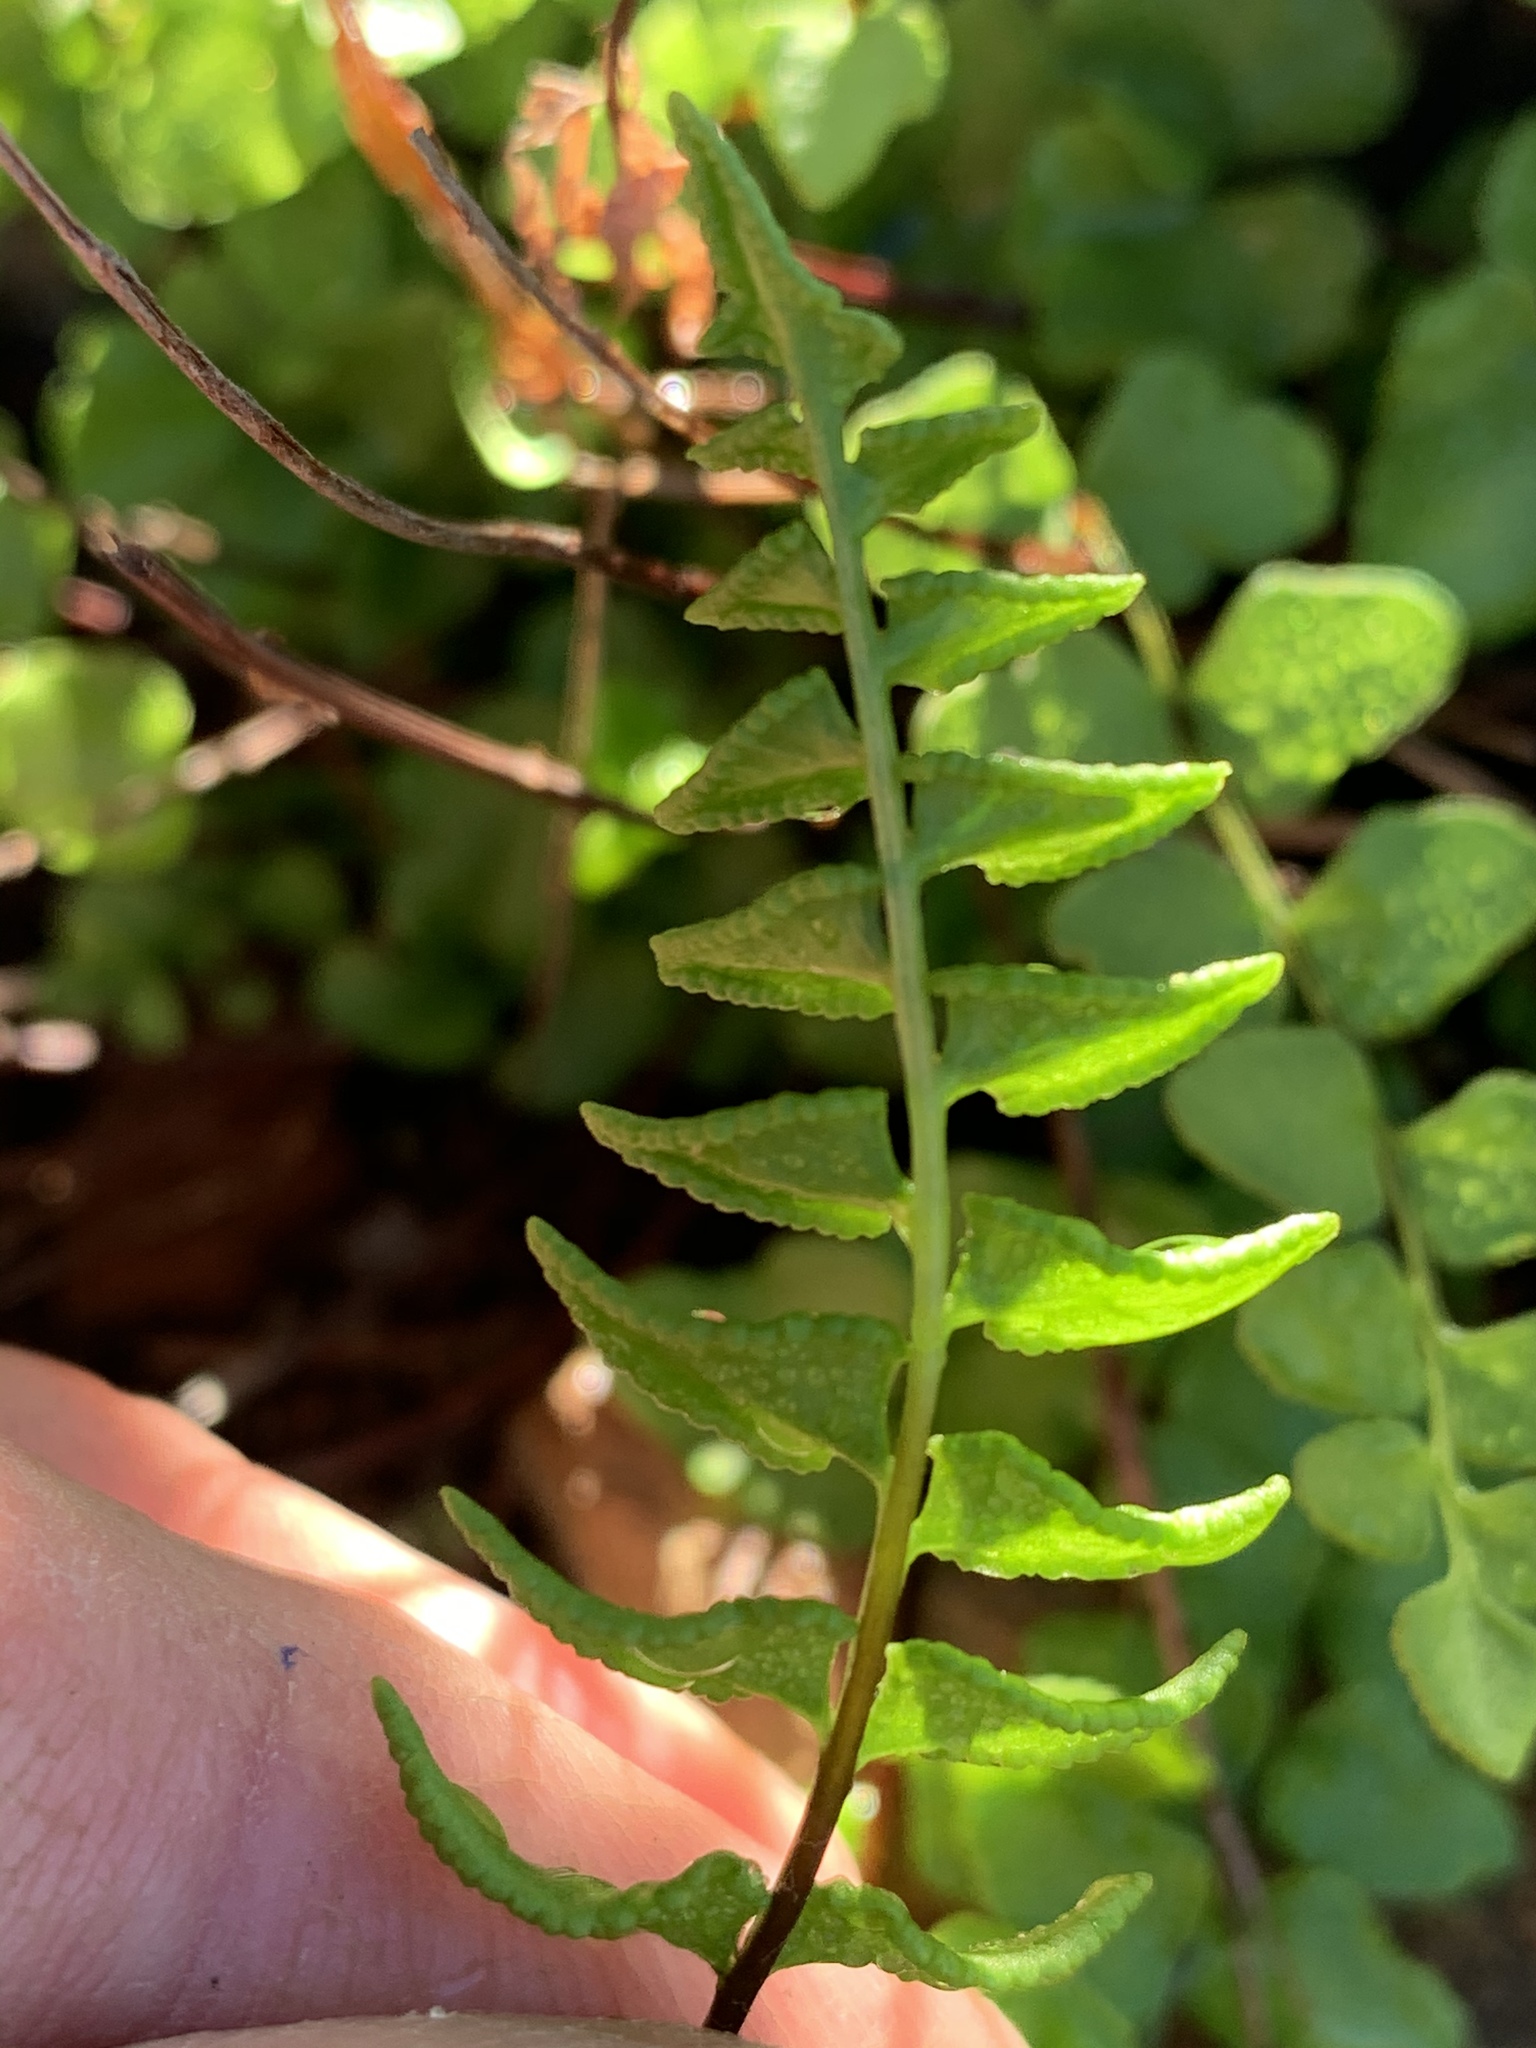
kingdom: Plantae
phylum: Tracheophyta
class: Polypodiopsida
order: Polypodiales
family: Pteridaceae
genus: Cheilanthes
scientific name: Cheilanthes hastata
